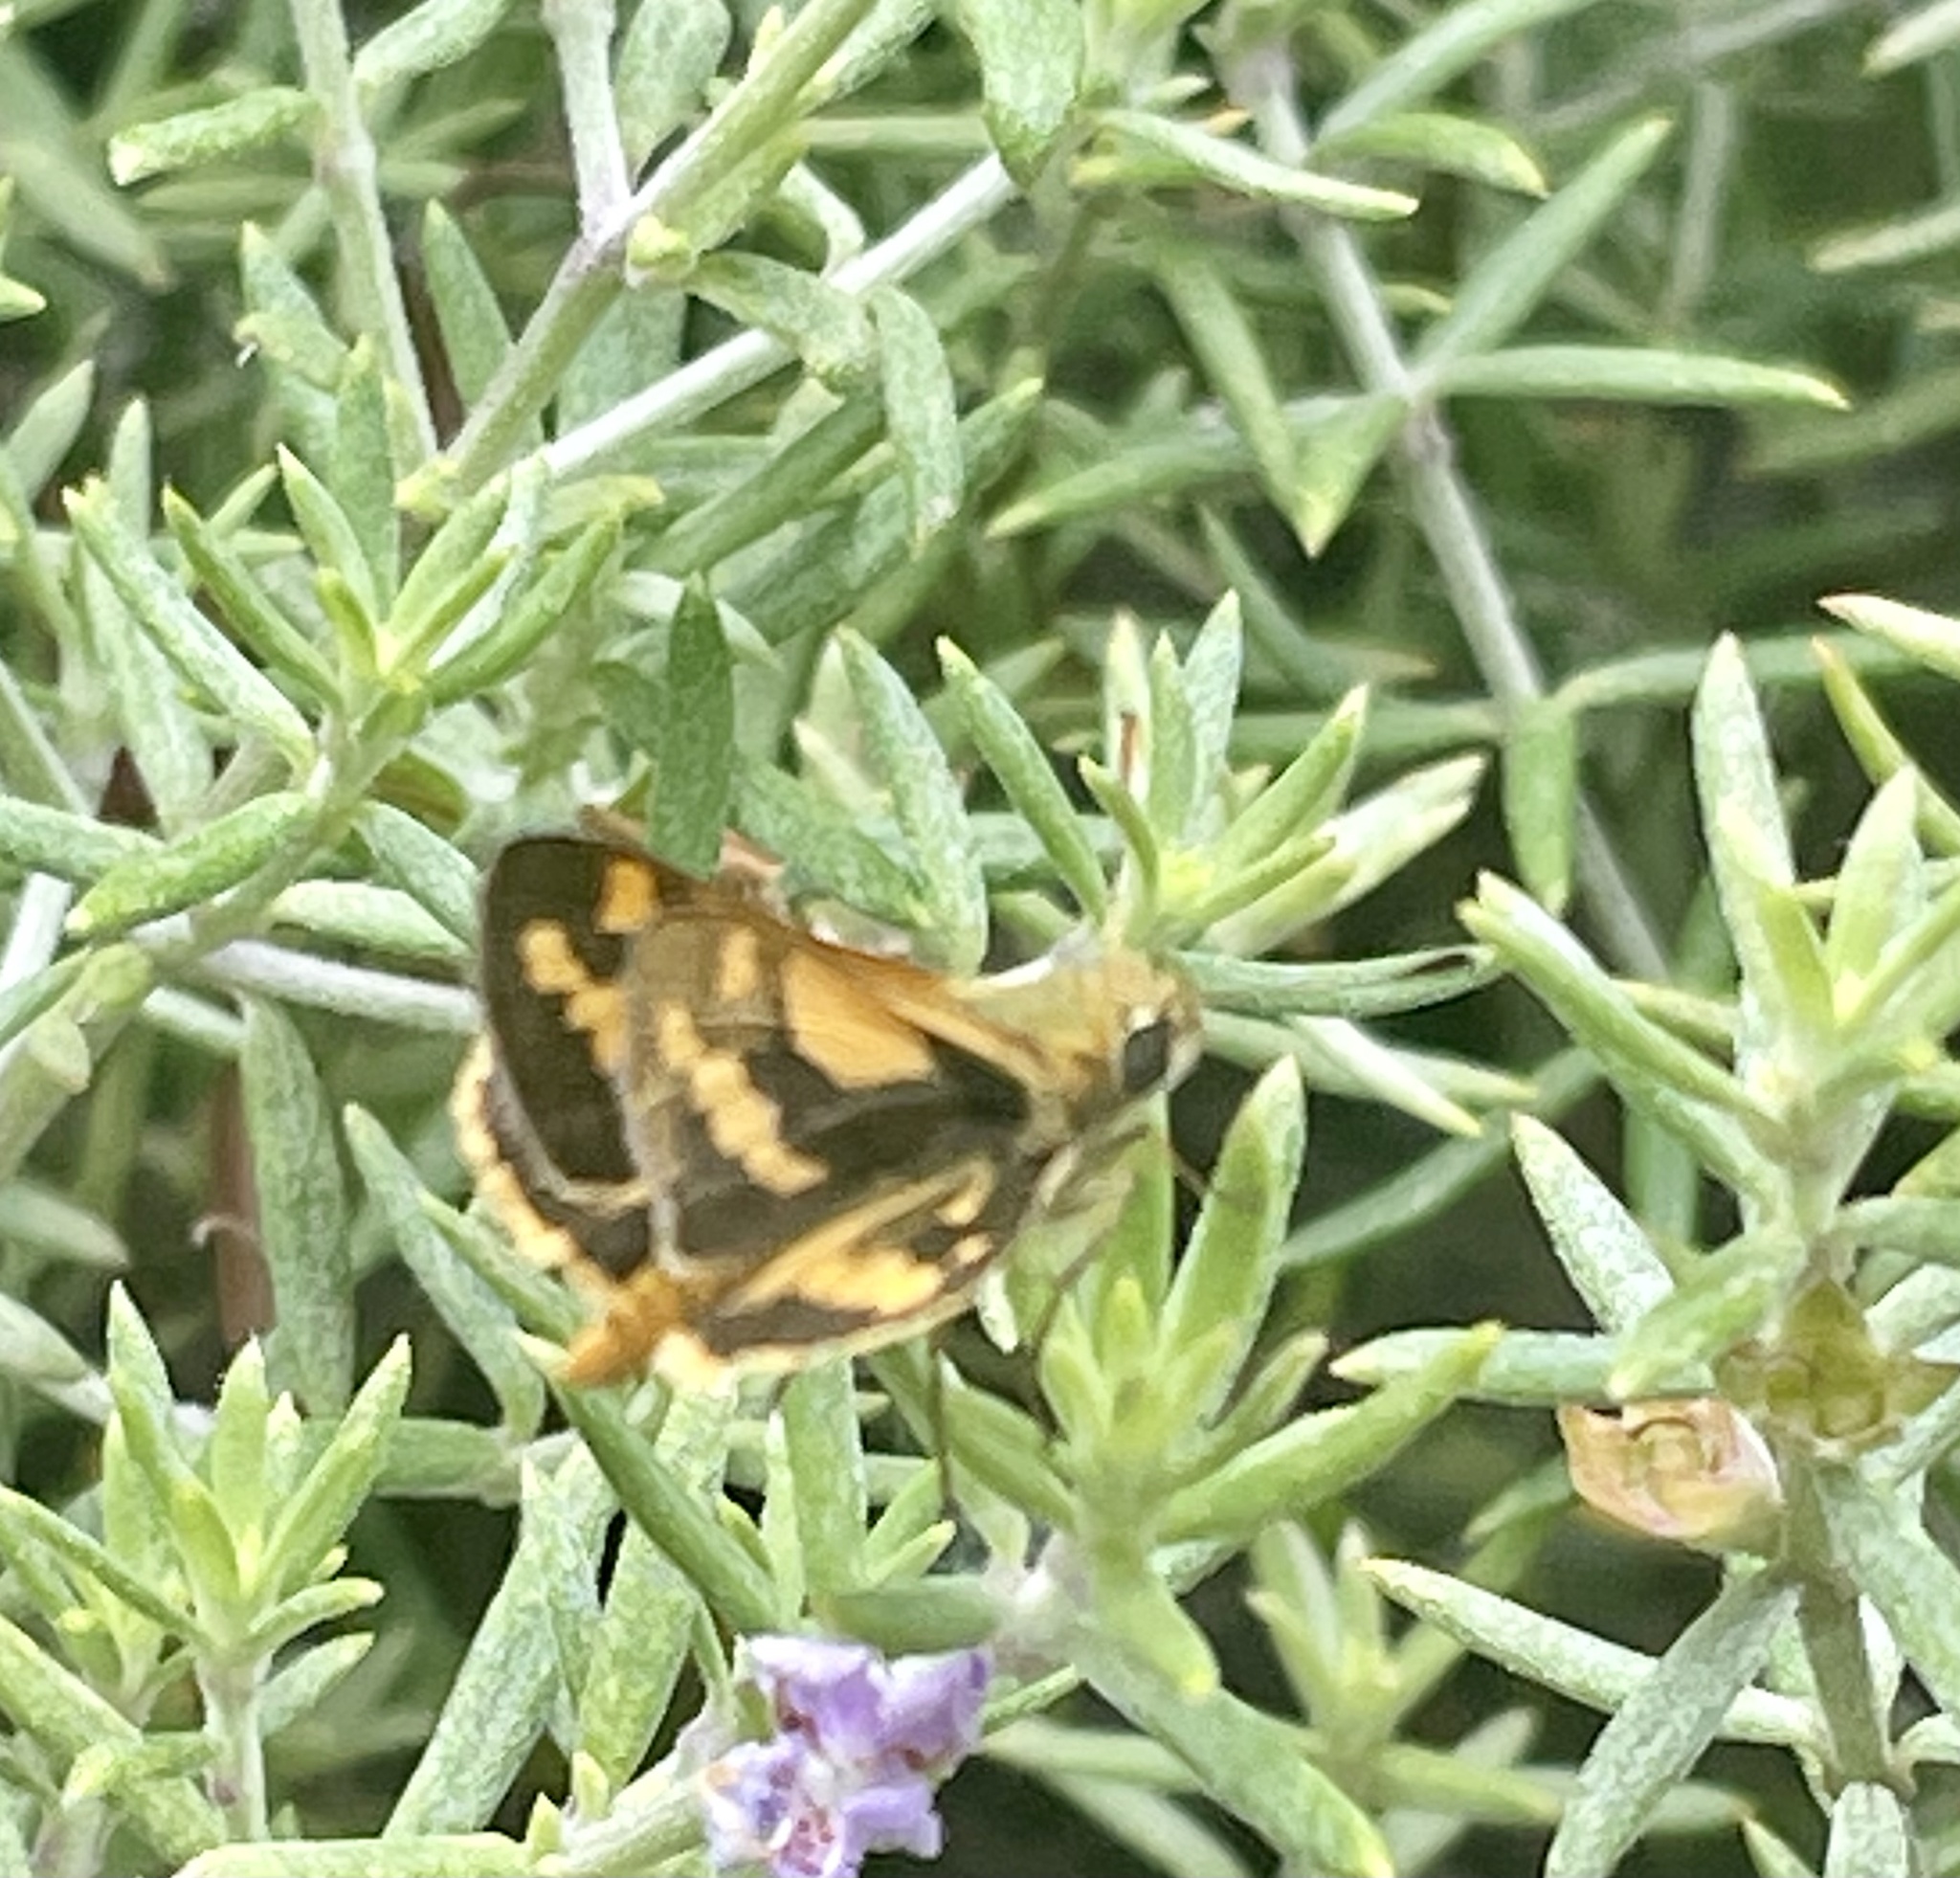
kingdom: Animalia
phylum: Arthropoda
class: Insecta
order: Lepidoptera
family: Hesperiidae
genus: Ocybadistes
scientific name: Ocybadistes walkeri
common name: Yellow-banded dart
